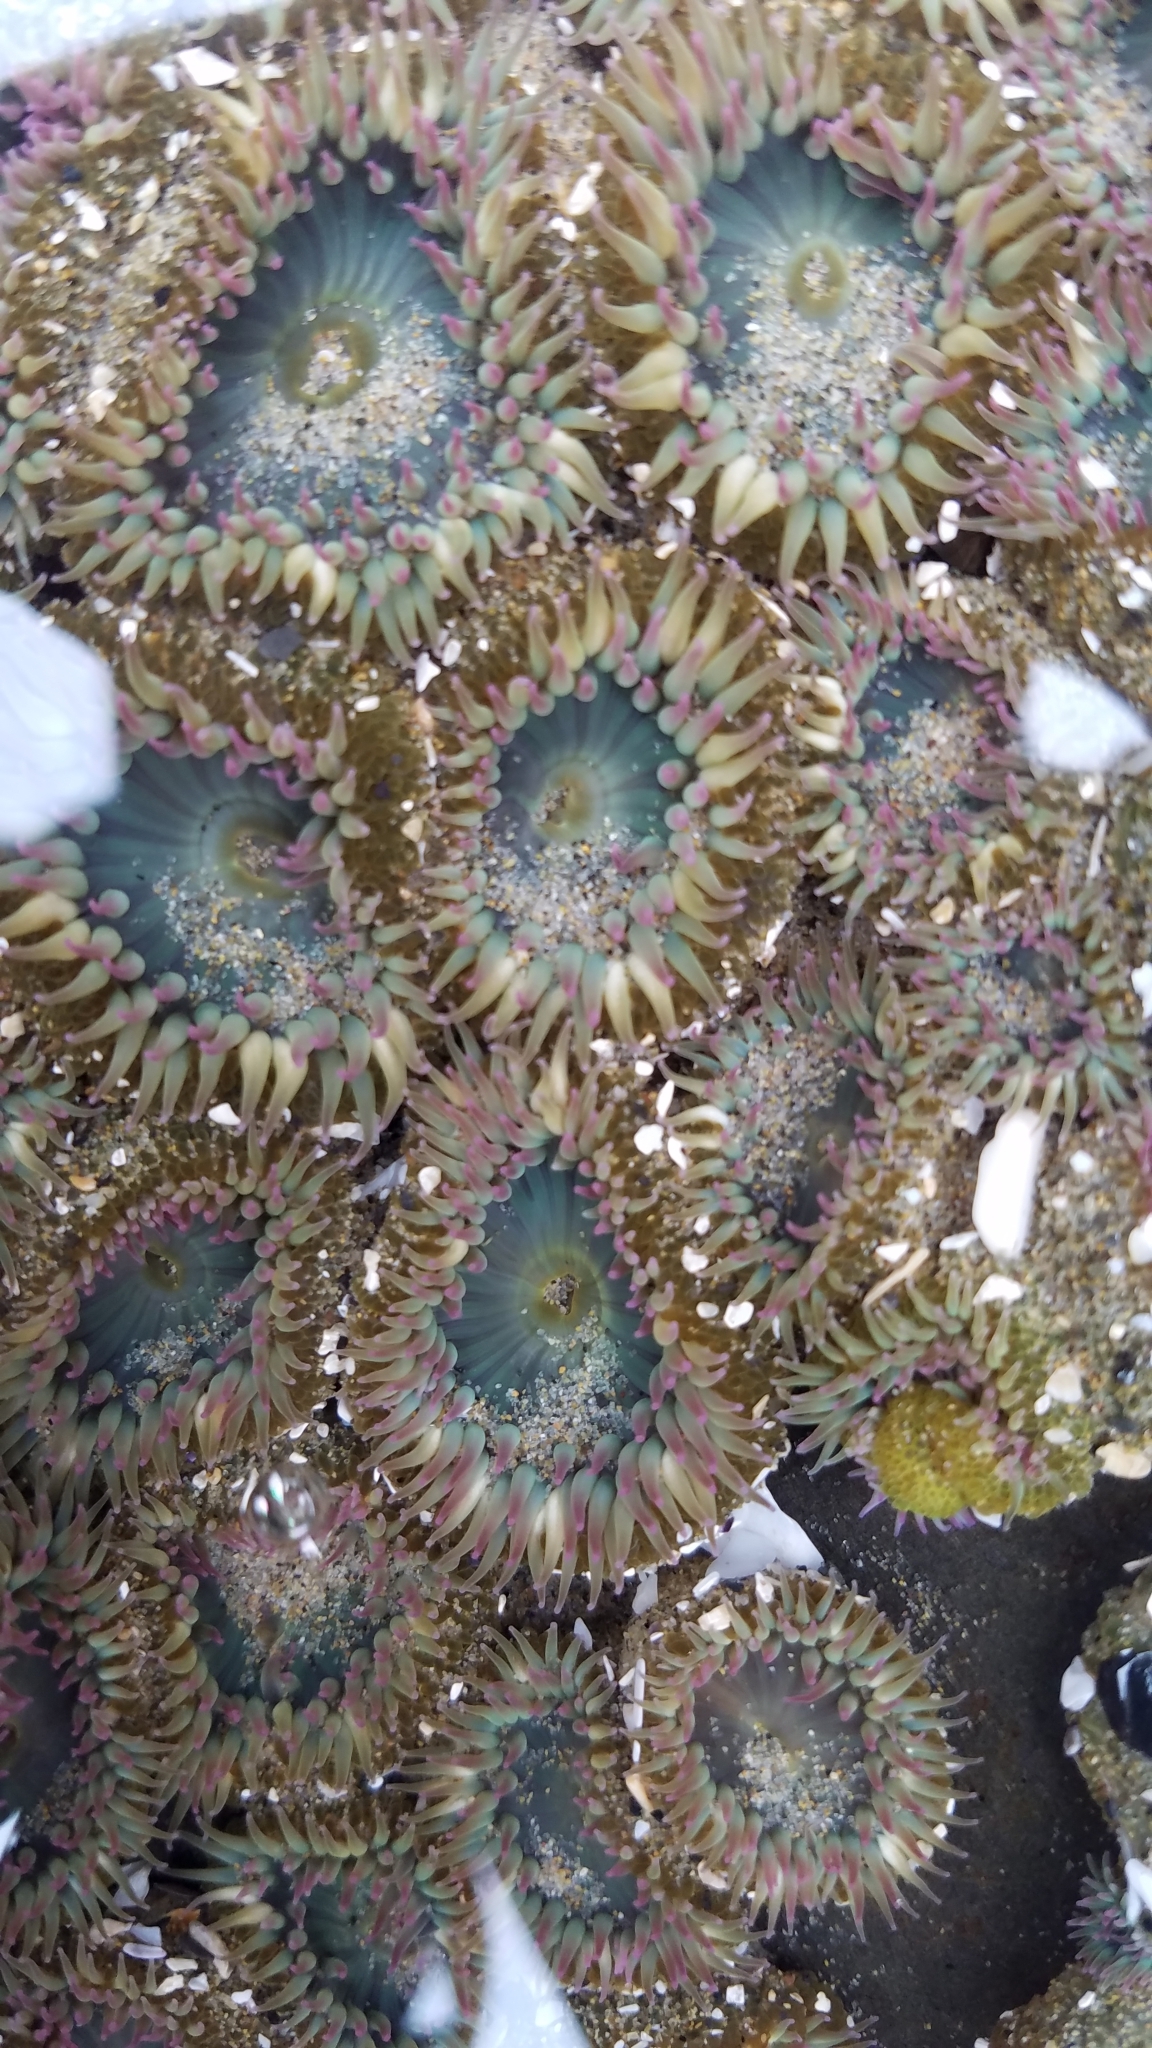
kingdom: Animalia
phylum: Cnidaria
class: Anthozoa
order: Actiniaria
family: Actiniidae
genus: Anthopleura
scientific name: Anthopleura elegantissima
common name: Clonal anemone
